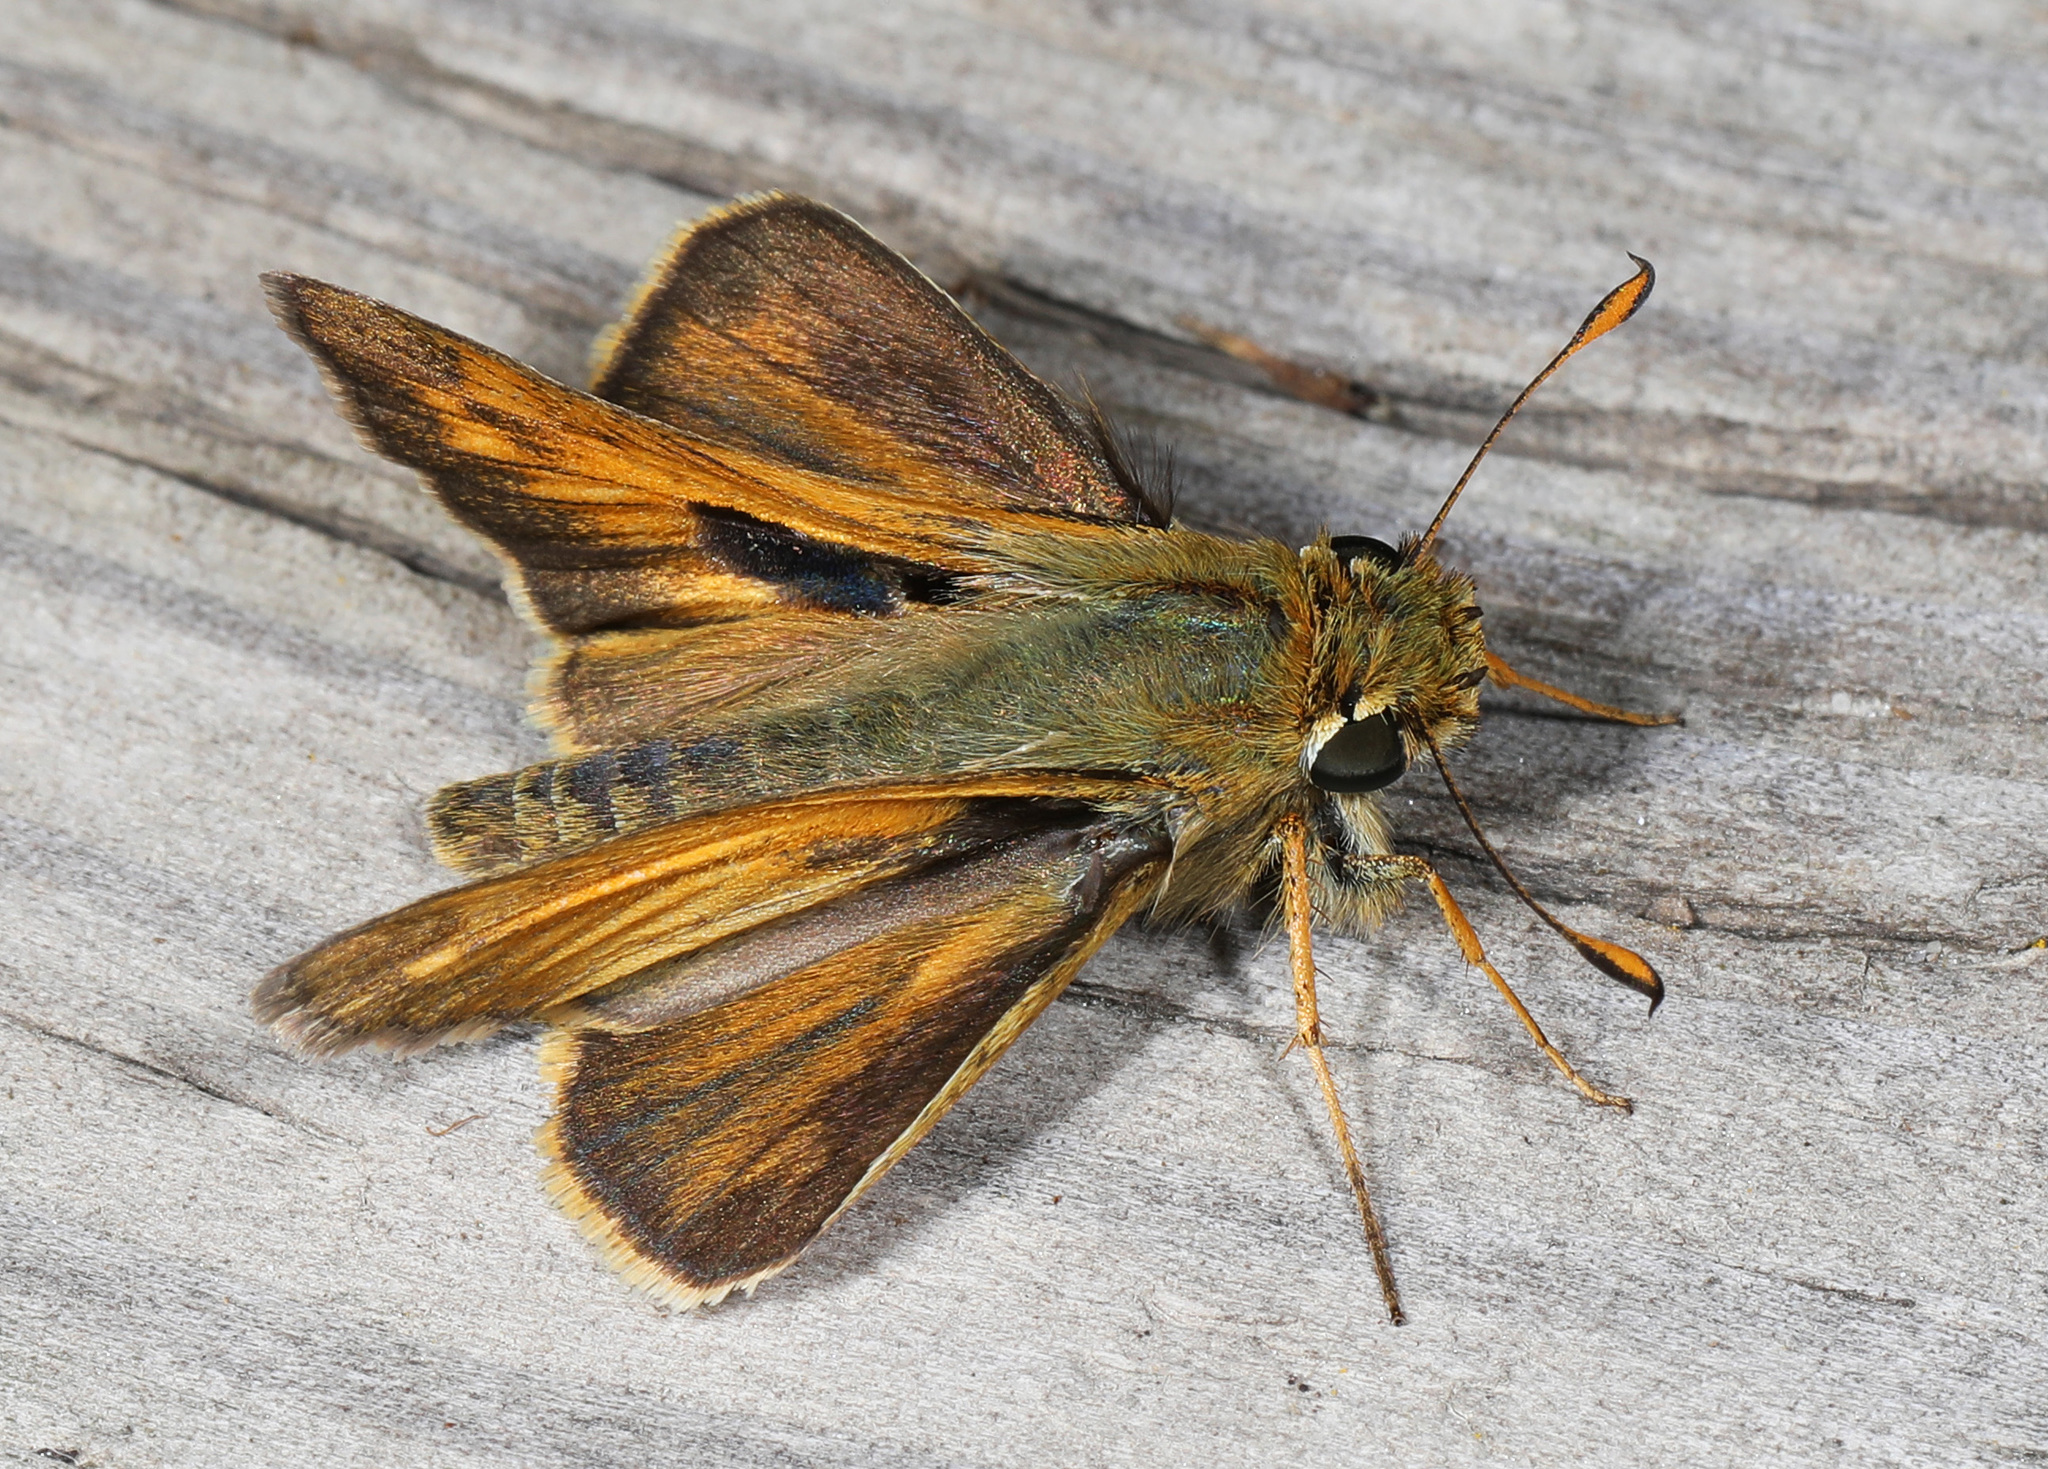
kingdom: Animalia
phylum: Arthropoda
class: Insecta
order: Lepidoptera
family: Hesperiidae
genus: Atalopedes
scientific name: Atalopedes
